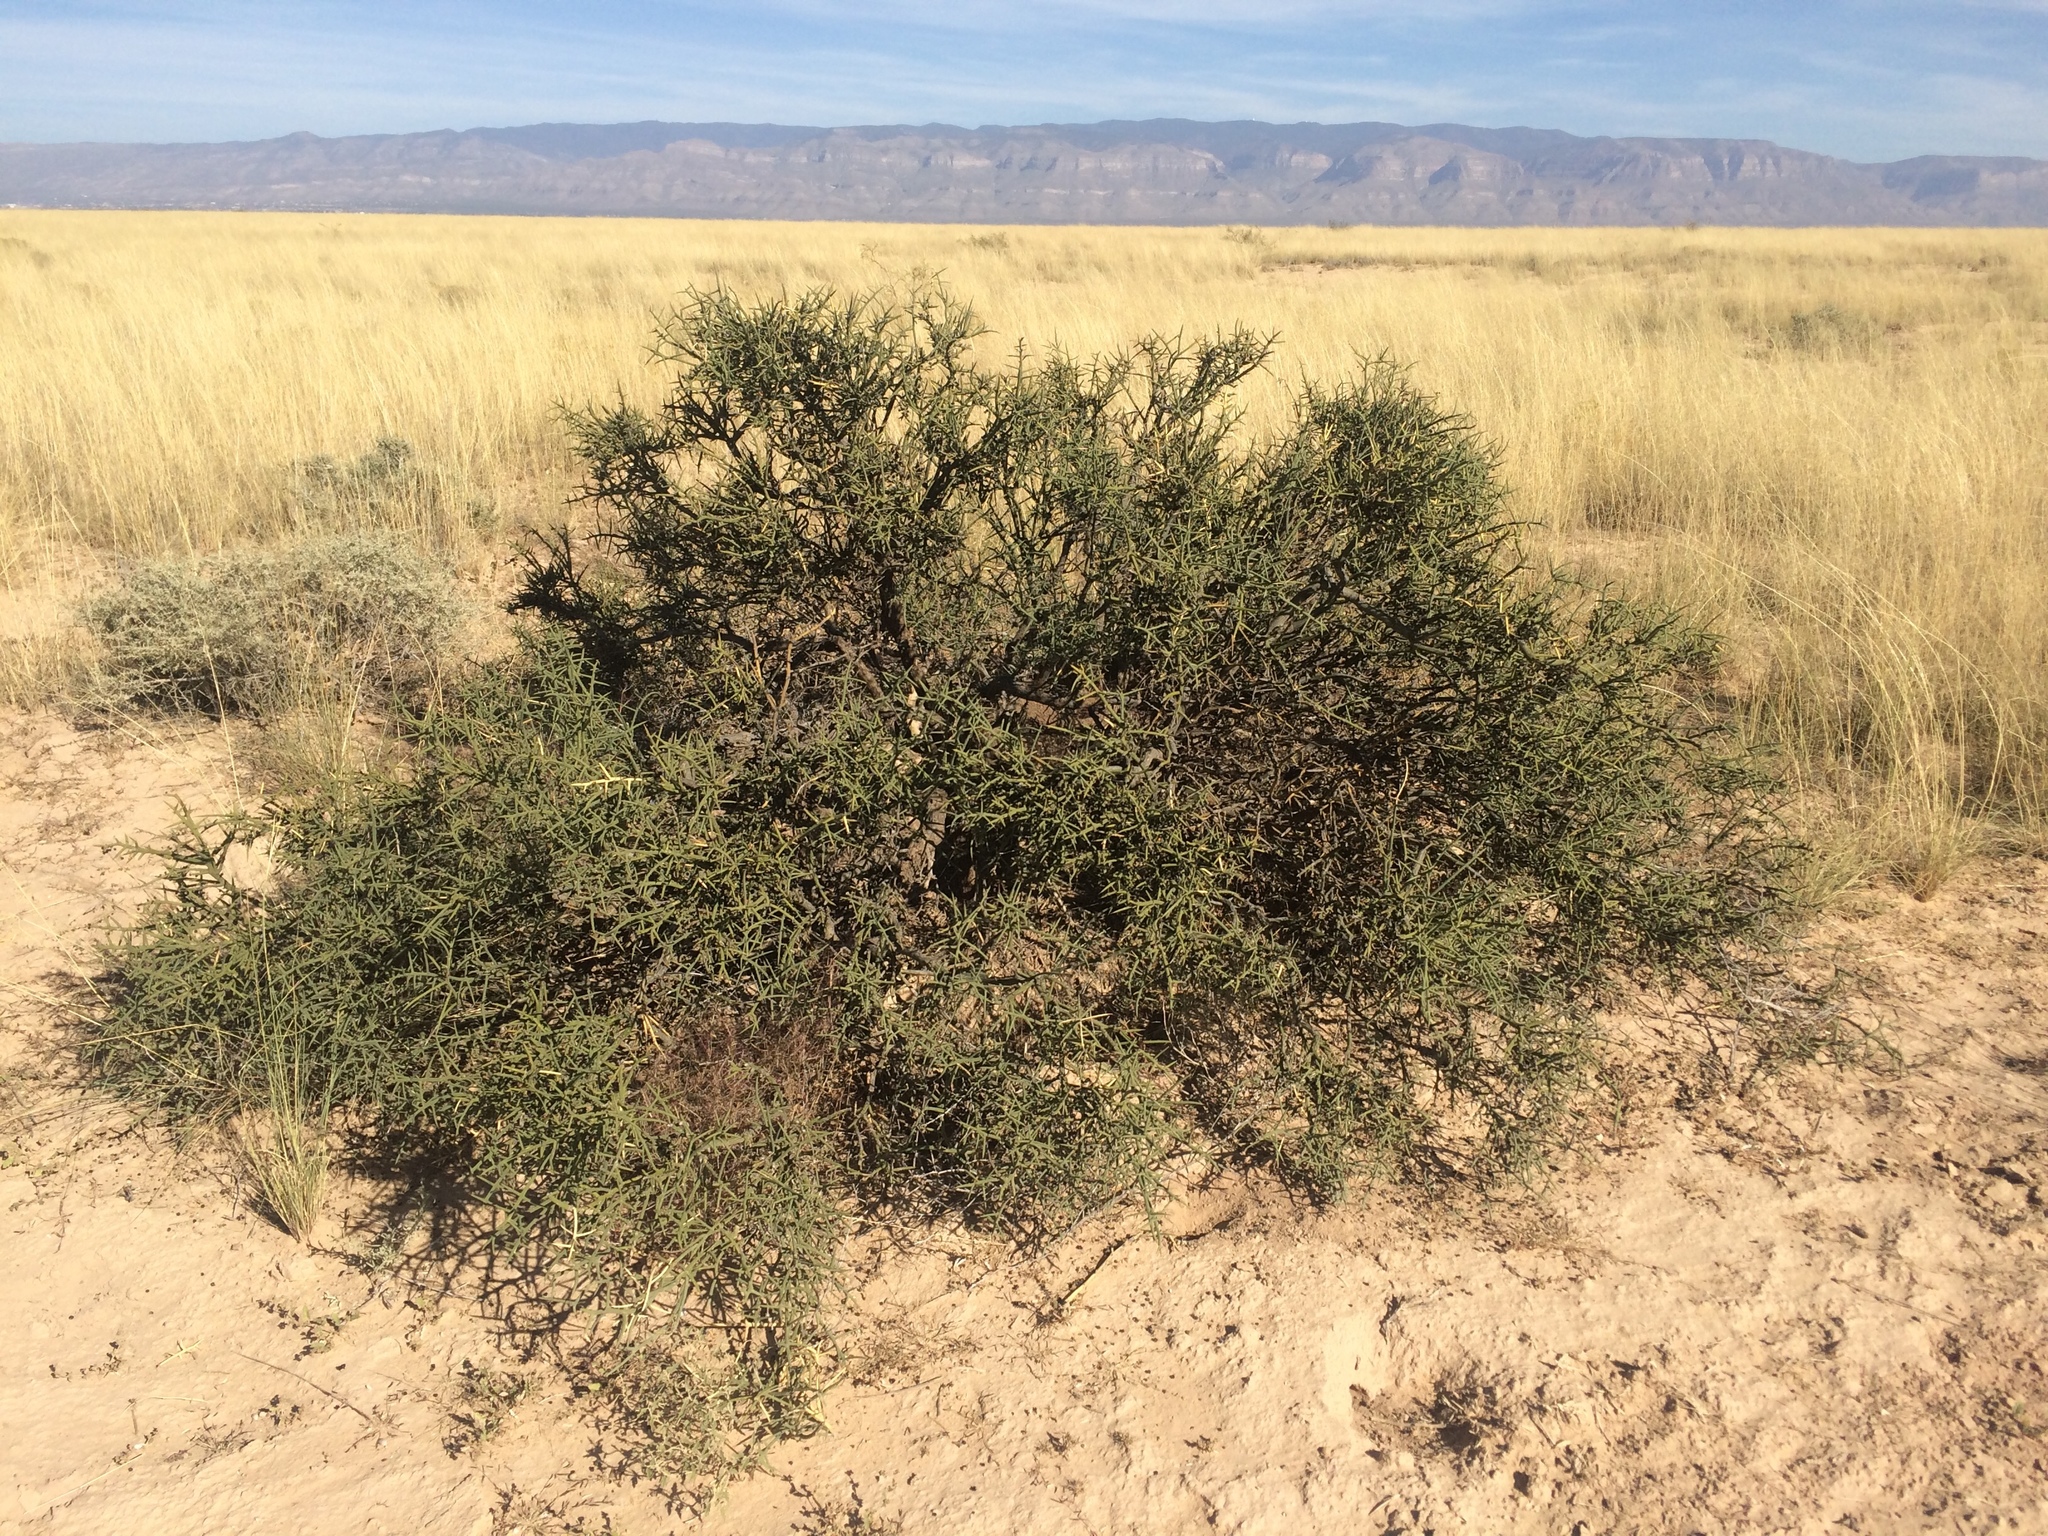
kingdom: Plantae
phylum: Tracheophyta
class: Magnoliopsida
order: Brassicales
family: Koeberliniaceae
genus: Koeberlinia
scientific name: Koeberlinia spinosa
